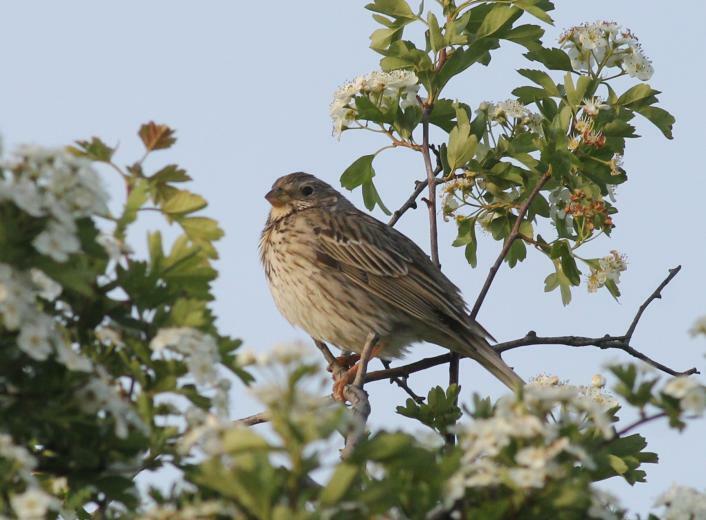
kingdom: Animalia
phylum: Chordata
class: Aves
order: Passeriformes
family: Emberizidae
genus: Emberiza
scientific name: Emberiza calandra
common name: Corn bunting
